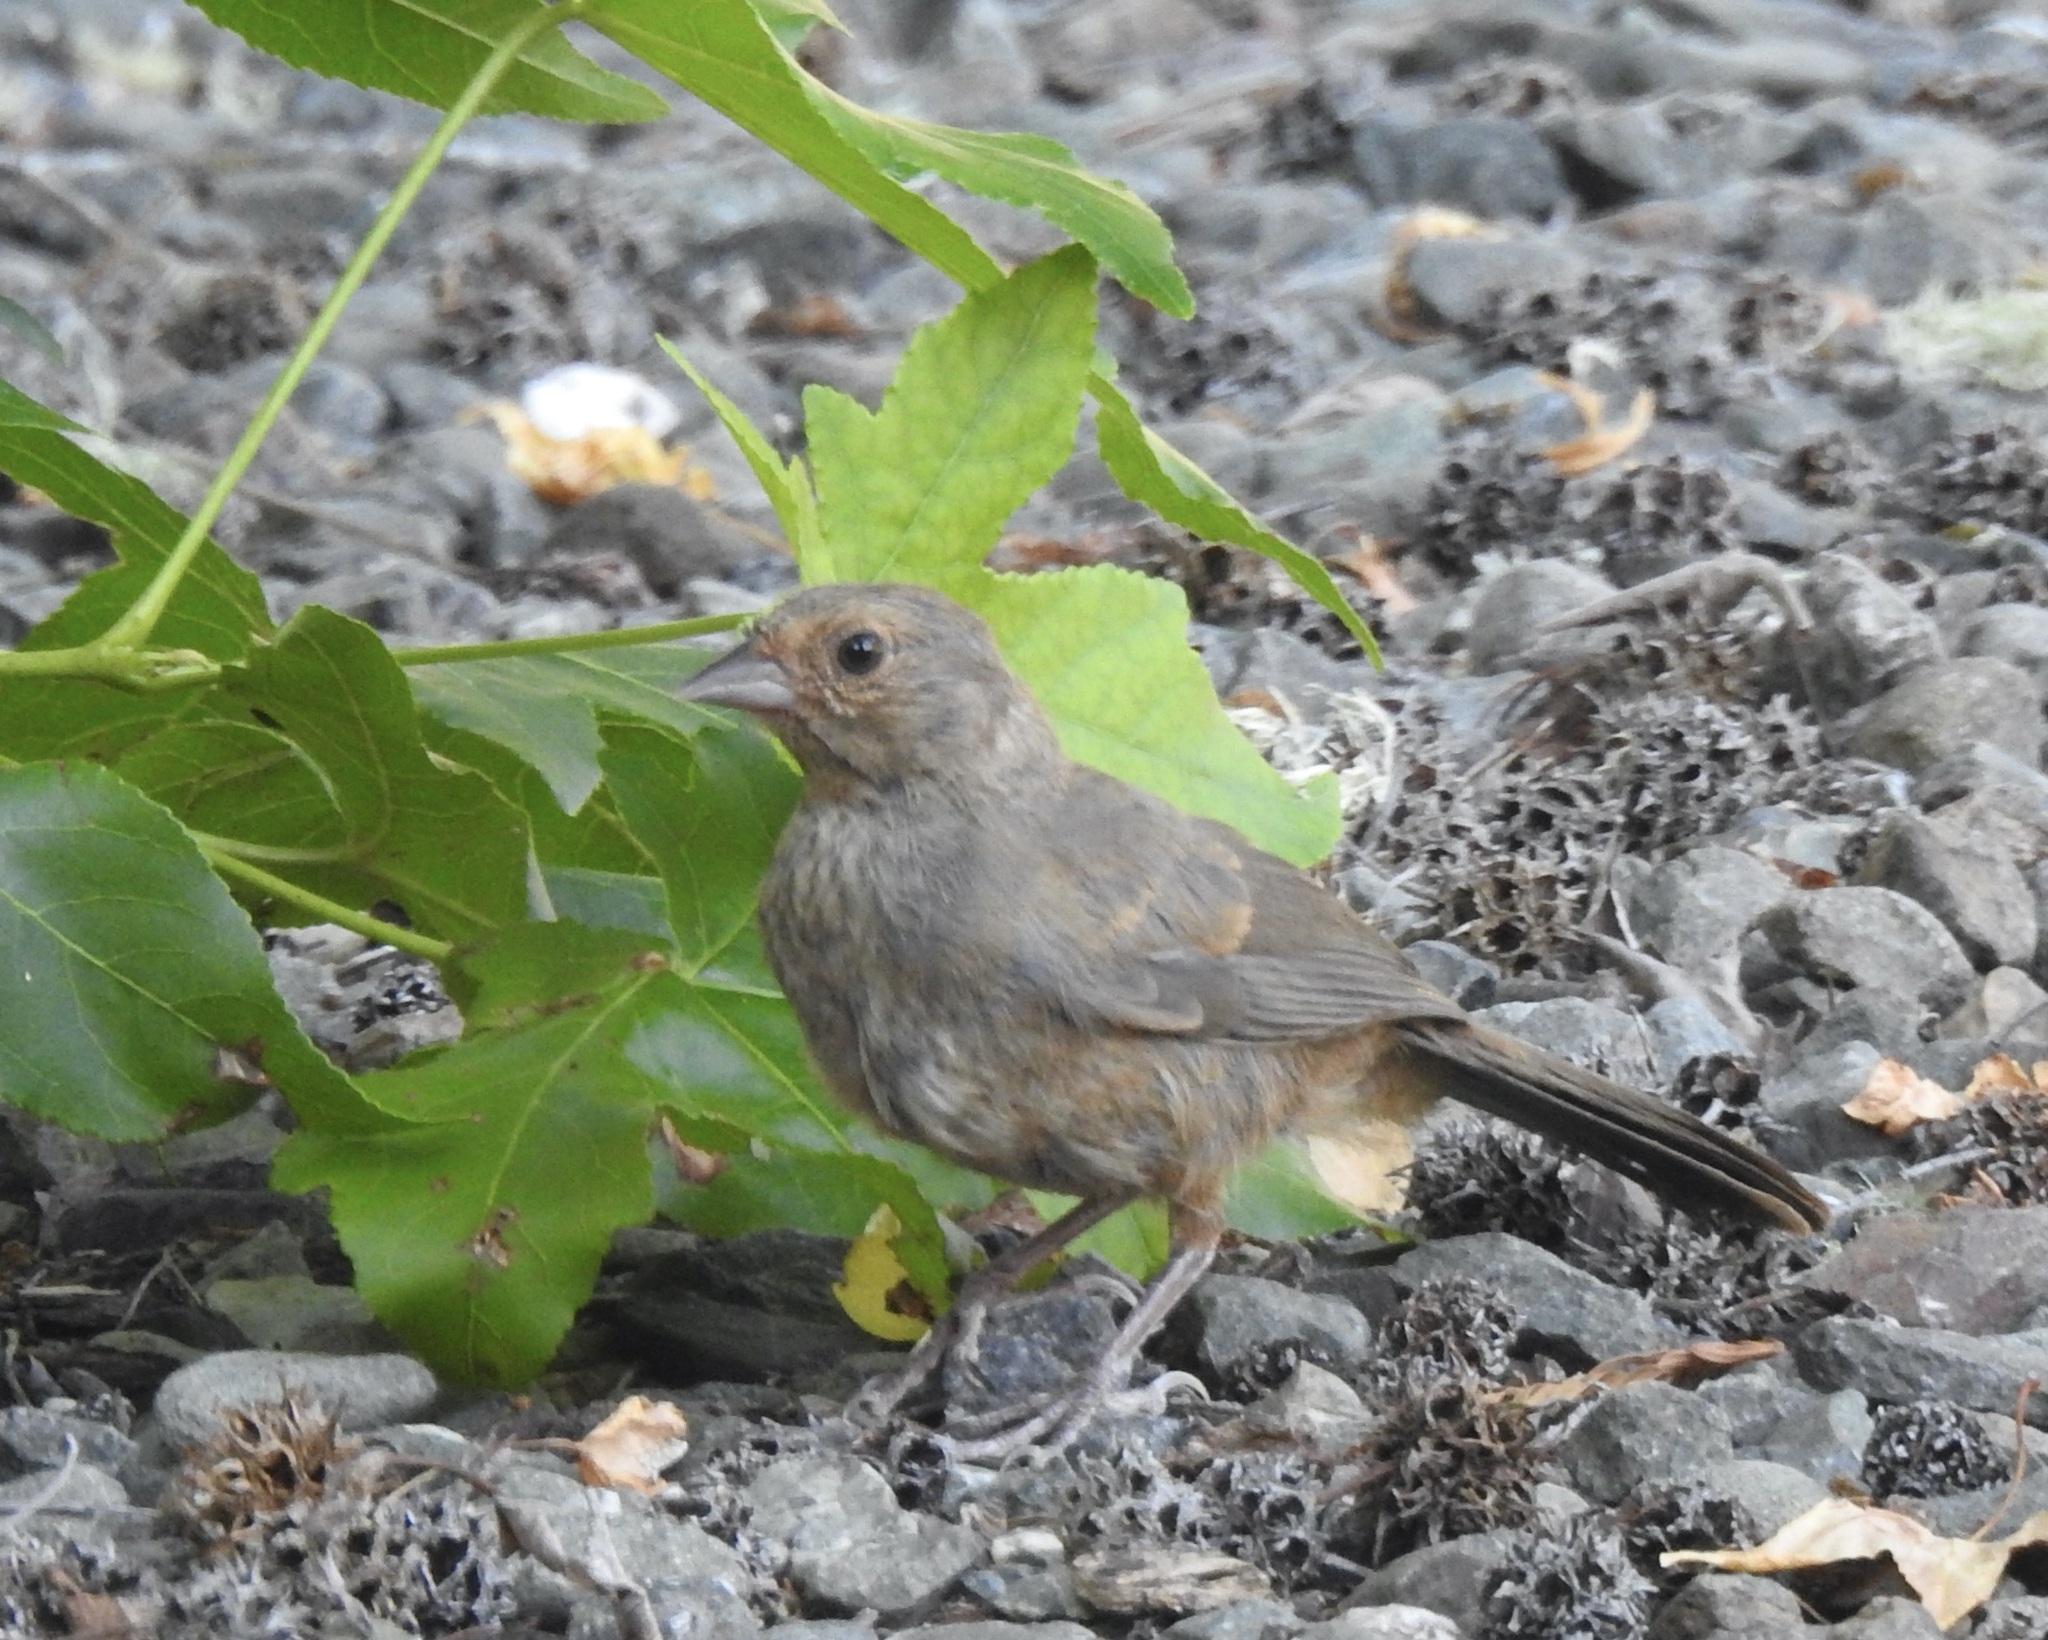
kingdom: Animalia
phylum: Chordata
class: Aves
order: Passeriformes
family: Passerellidae
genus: Melozone
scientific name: Melozone crissalis
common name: California towhee
